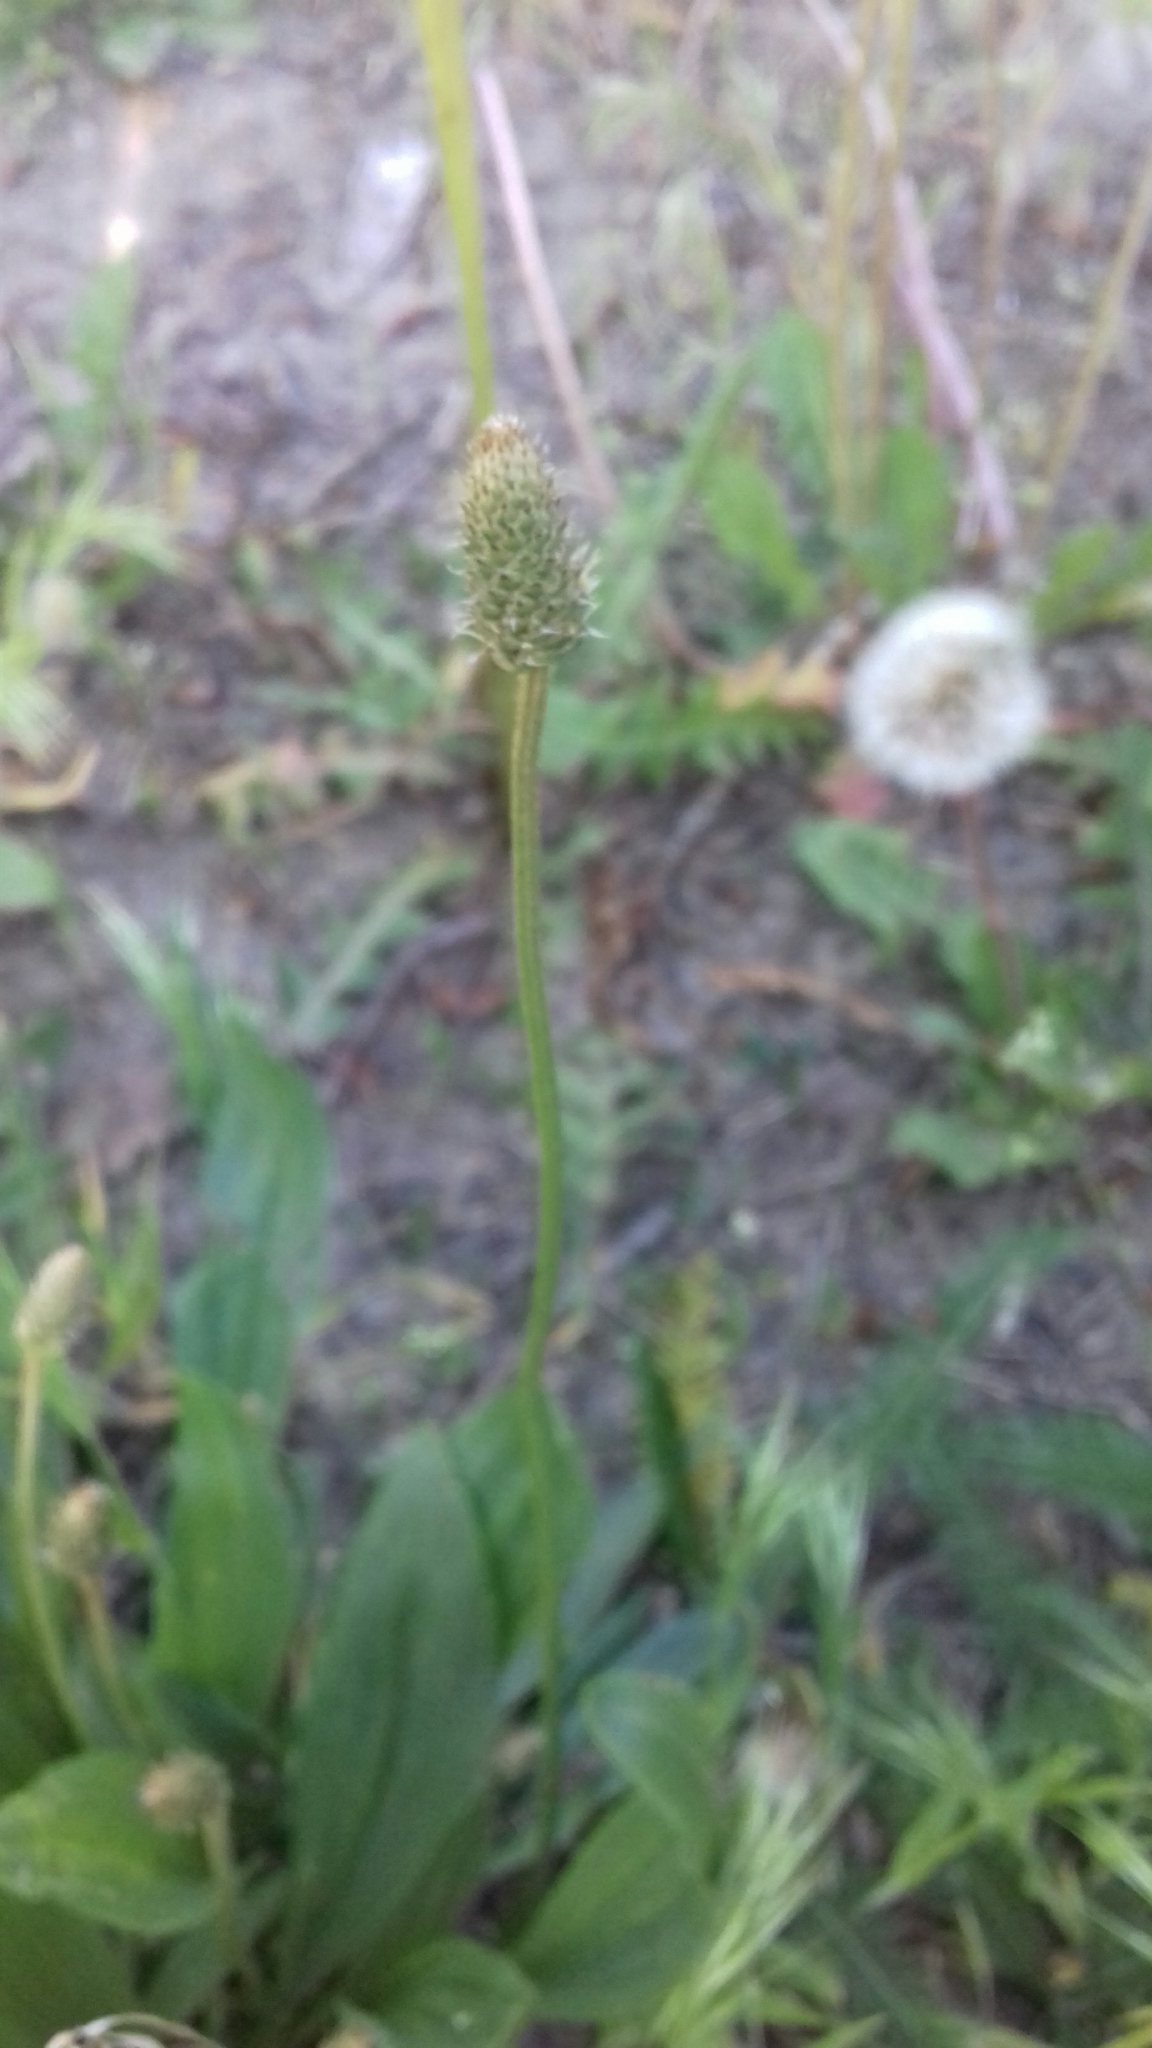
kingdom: Plantae
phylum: Tracheophyta
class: Magnoliopsida
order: Lamiales
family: Plantaginaceae
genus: Plantago
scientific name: Plantago lanceolata
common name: Ribwort plantain
